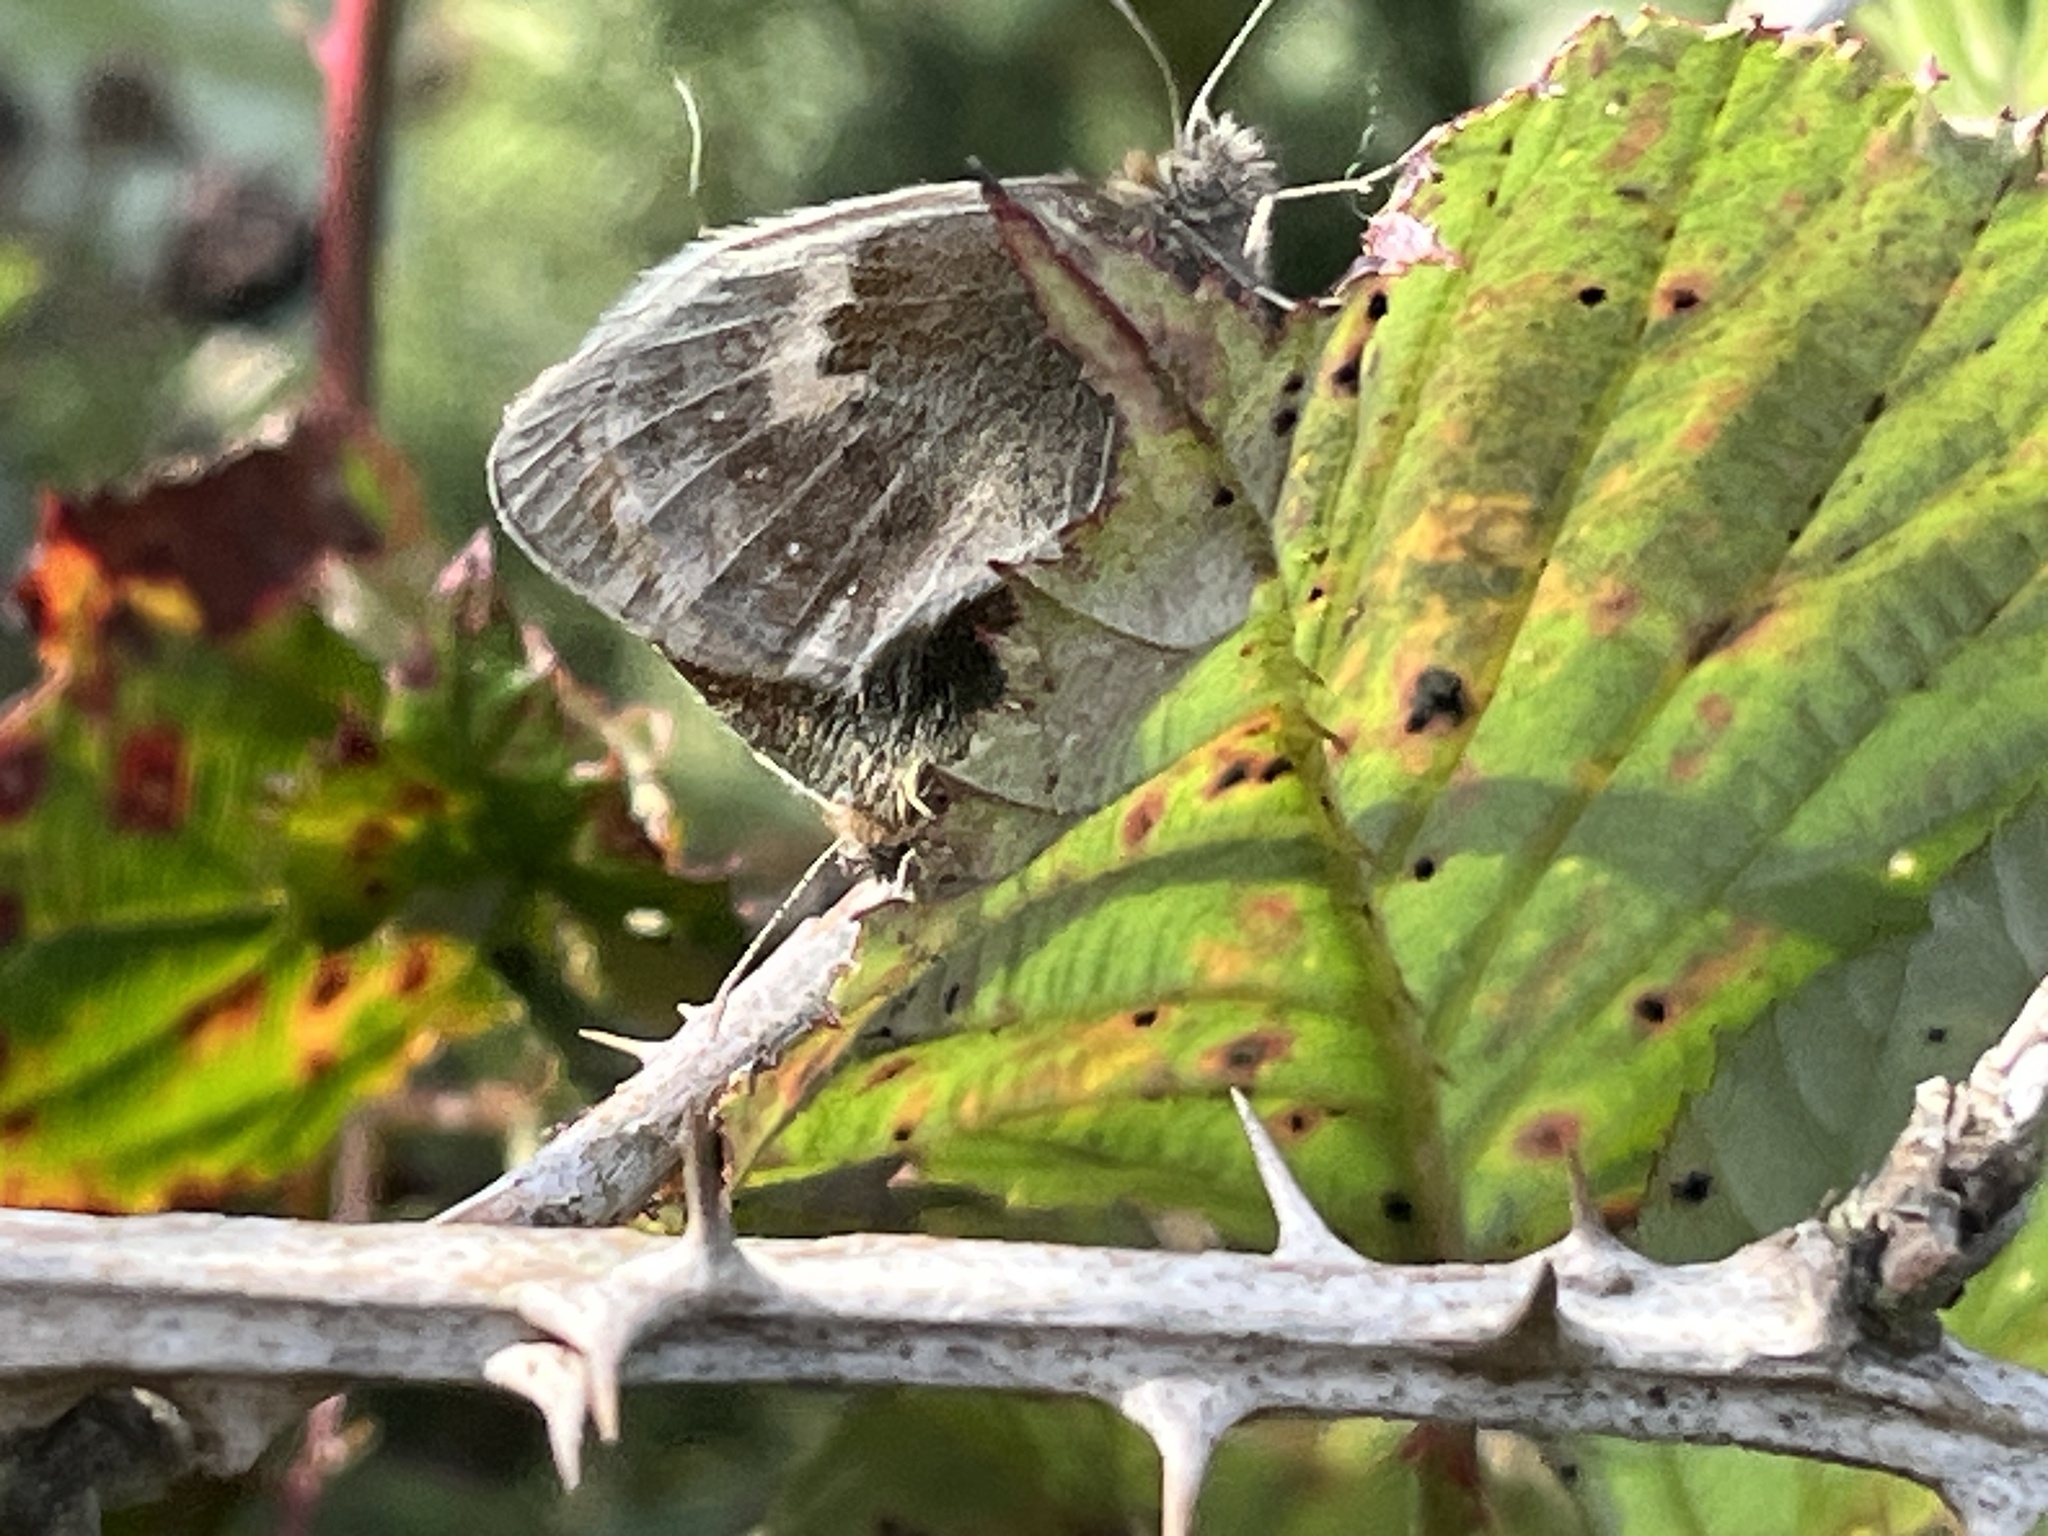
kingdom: Animalia
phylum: Arthropoda
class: Insecta
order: Lepidoptera
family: Nymphalidae
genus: Coenonympha
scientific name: Coenonympha pamphilus
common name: Small heath
